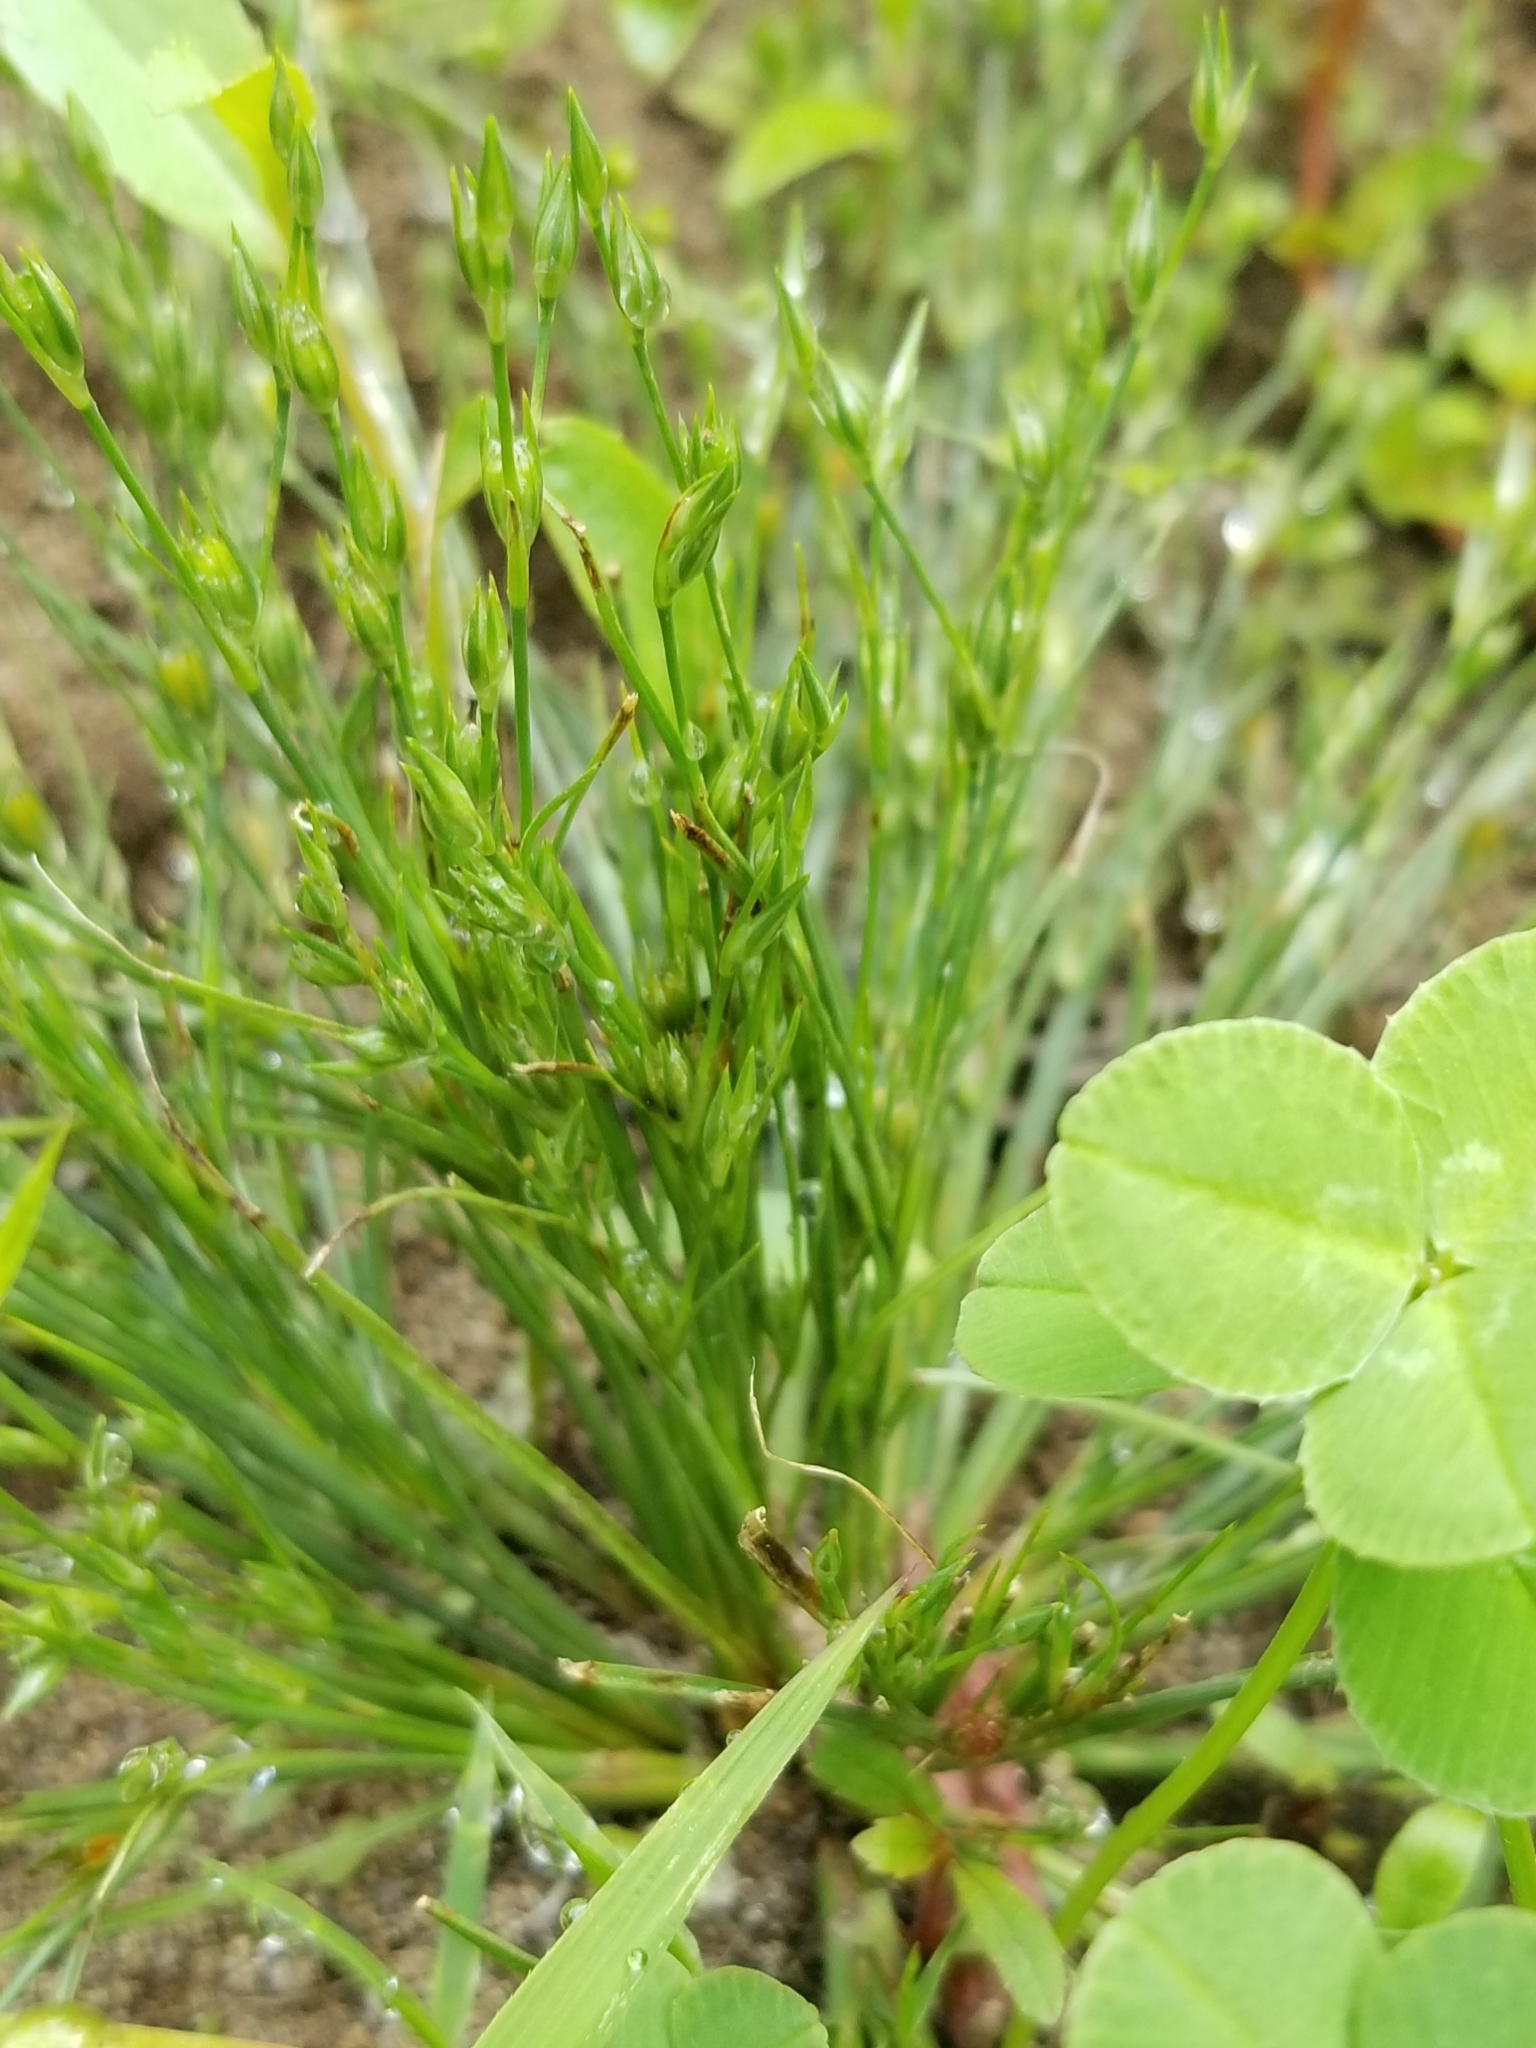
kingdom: Plantae
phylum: Tracheophyta
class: Liliopsida
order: Poales
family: Juncaceae
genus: Juncus
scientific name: Juncus bufonius
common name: Toad rush
